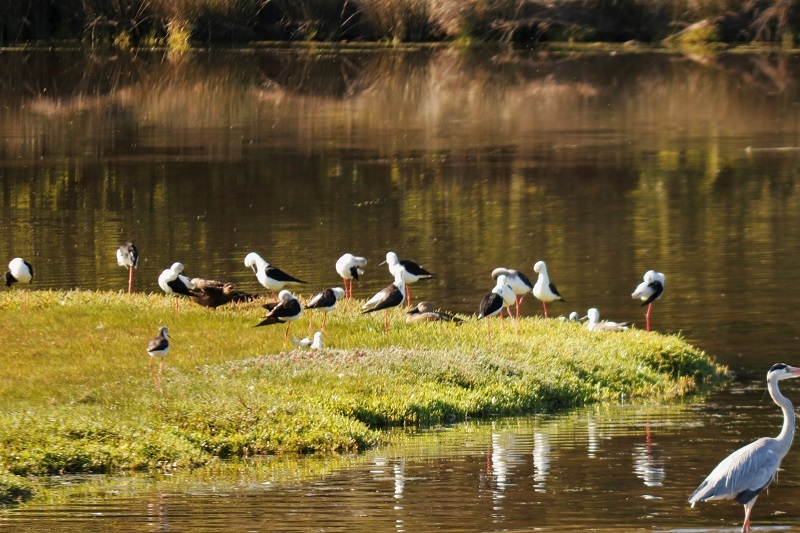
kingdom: Animalia
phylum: Chordata
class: Aves
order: Charadriiformes
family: Recurvirostridae
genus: Himantopus
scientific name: Himantopus himantopus
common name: Black-winged stilt
